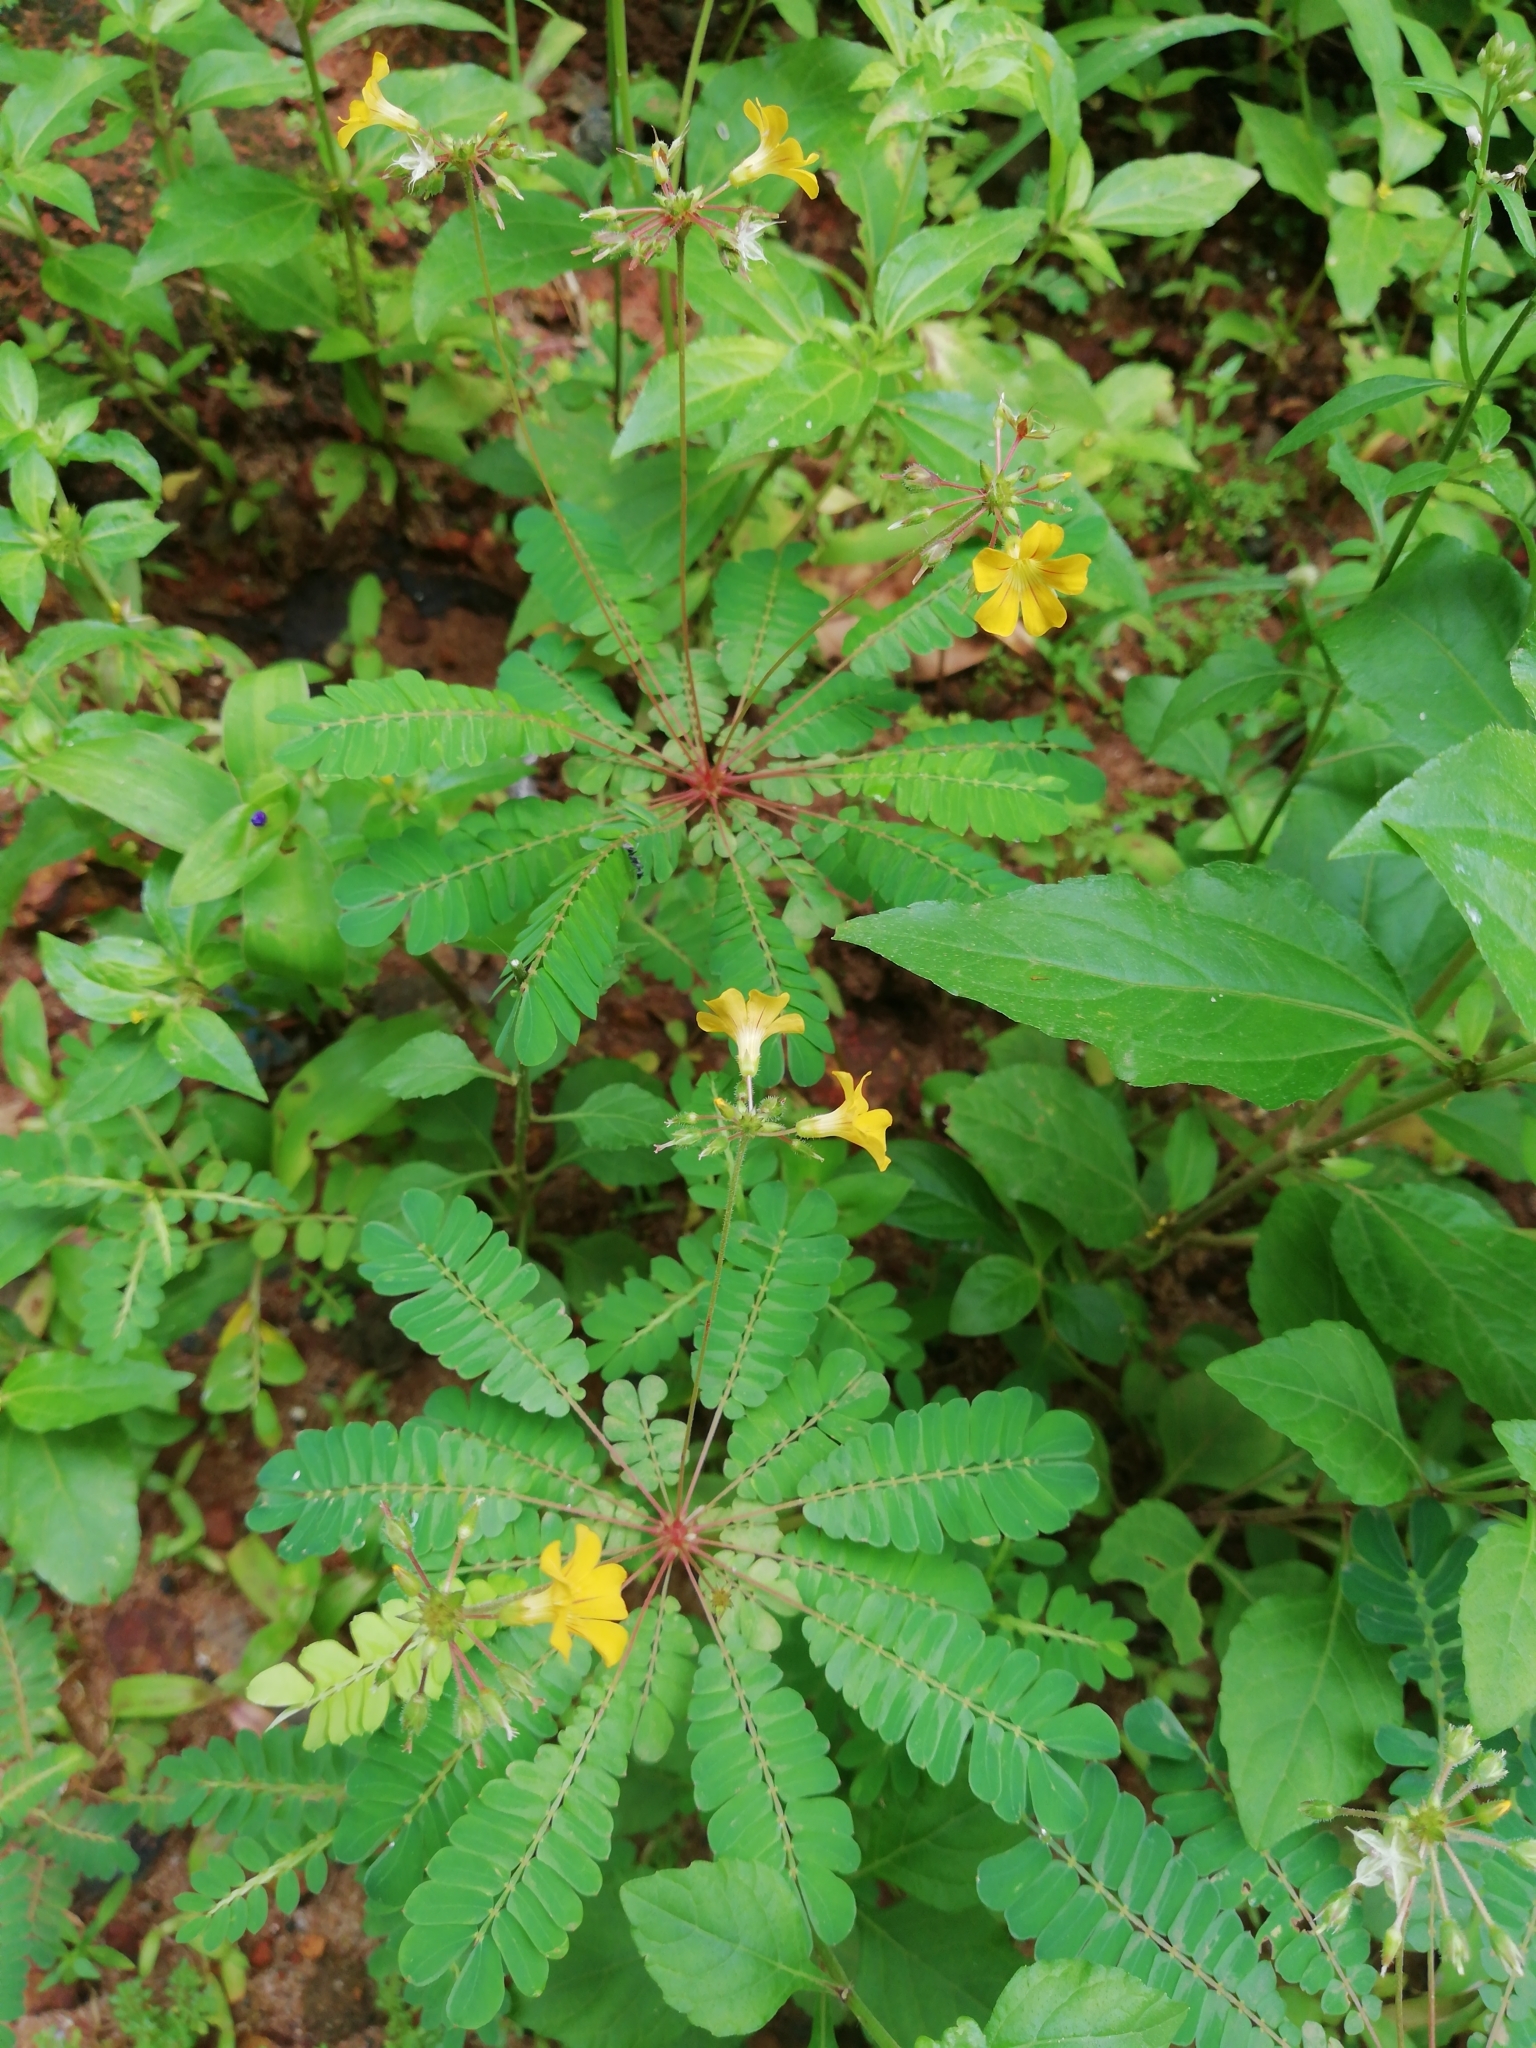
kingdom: Plantae
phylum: Tracheophyta
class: Magnoliopsida
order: Oxalidales
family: Oxalidaceae
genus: Biophytum
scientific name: Biophytum sensitivum
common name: Lifeplant
